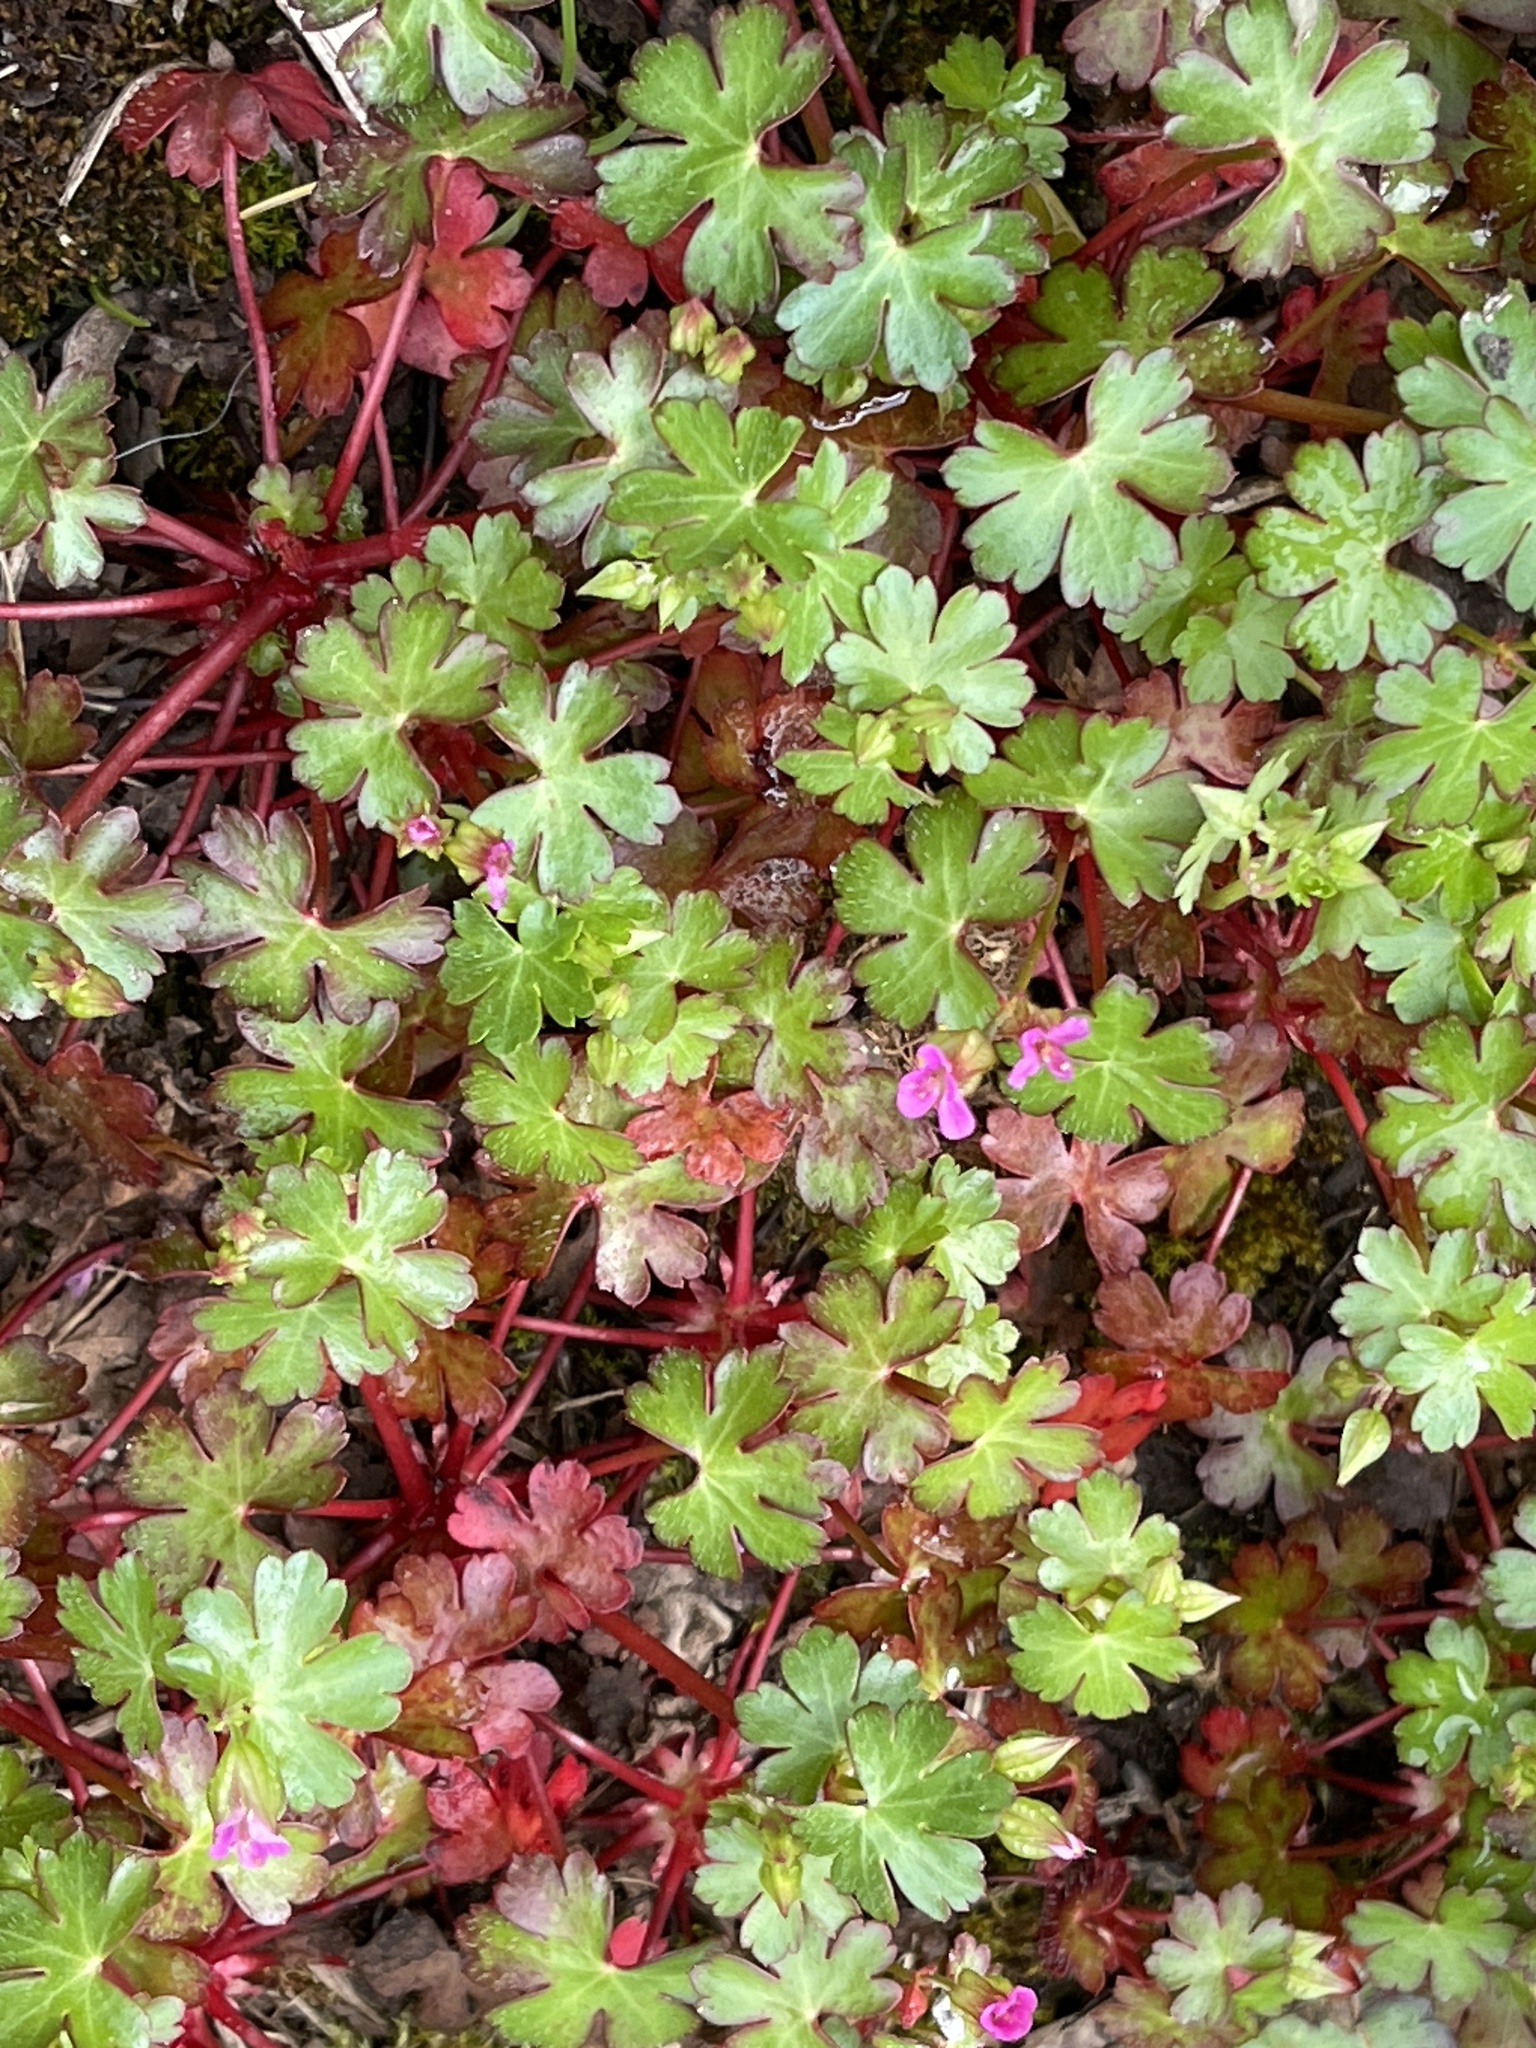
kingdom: Plantae
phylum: Tracheophyta
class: Magnoliopsida
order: Geraniales
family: Geraniaceae
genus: Geranium
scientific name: Geranium lucidum
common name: Shining crane's-bill
